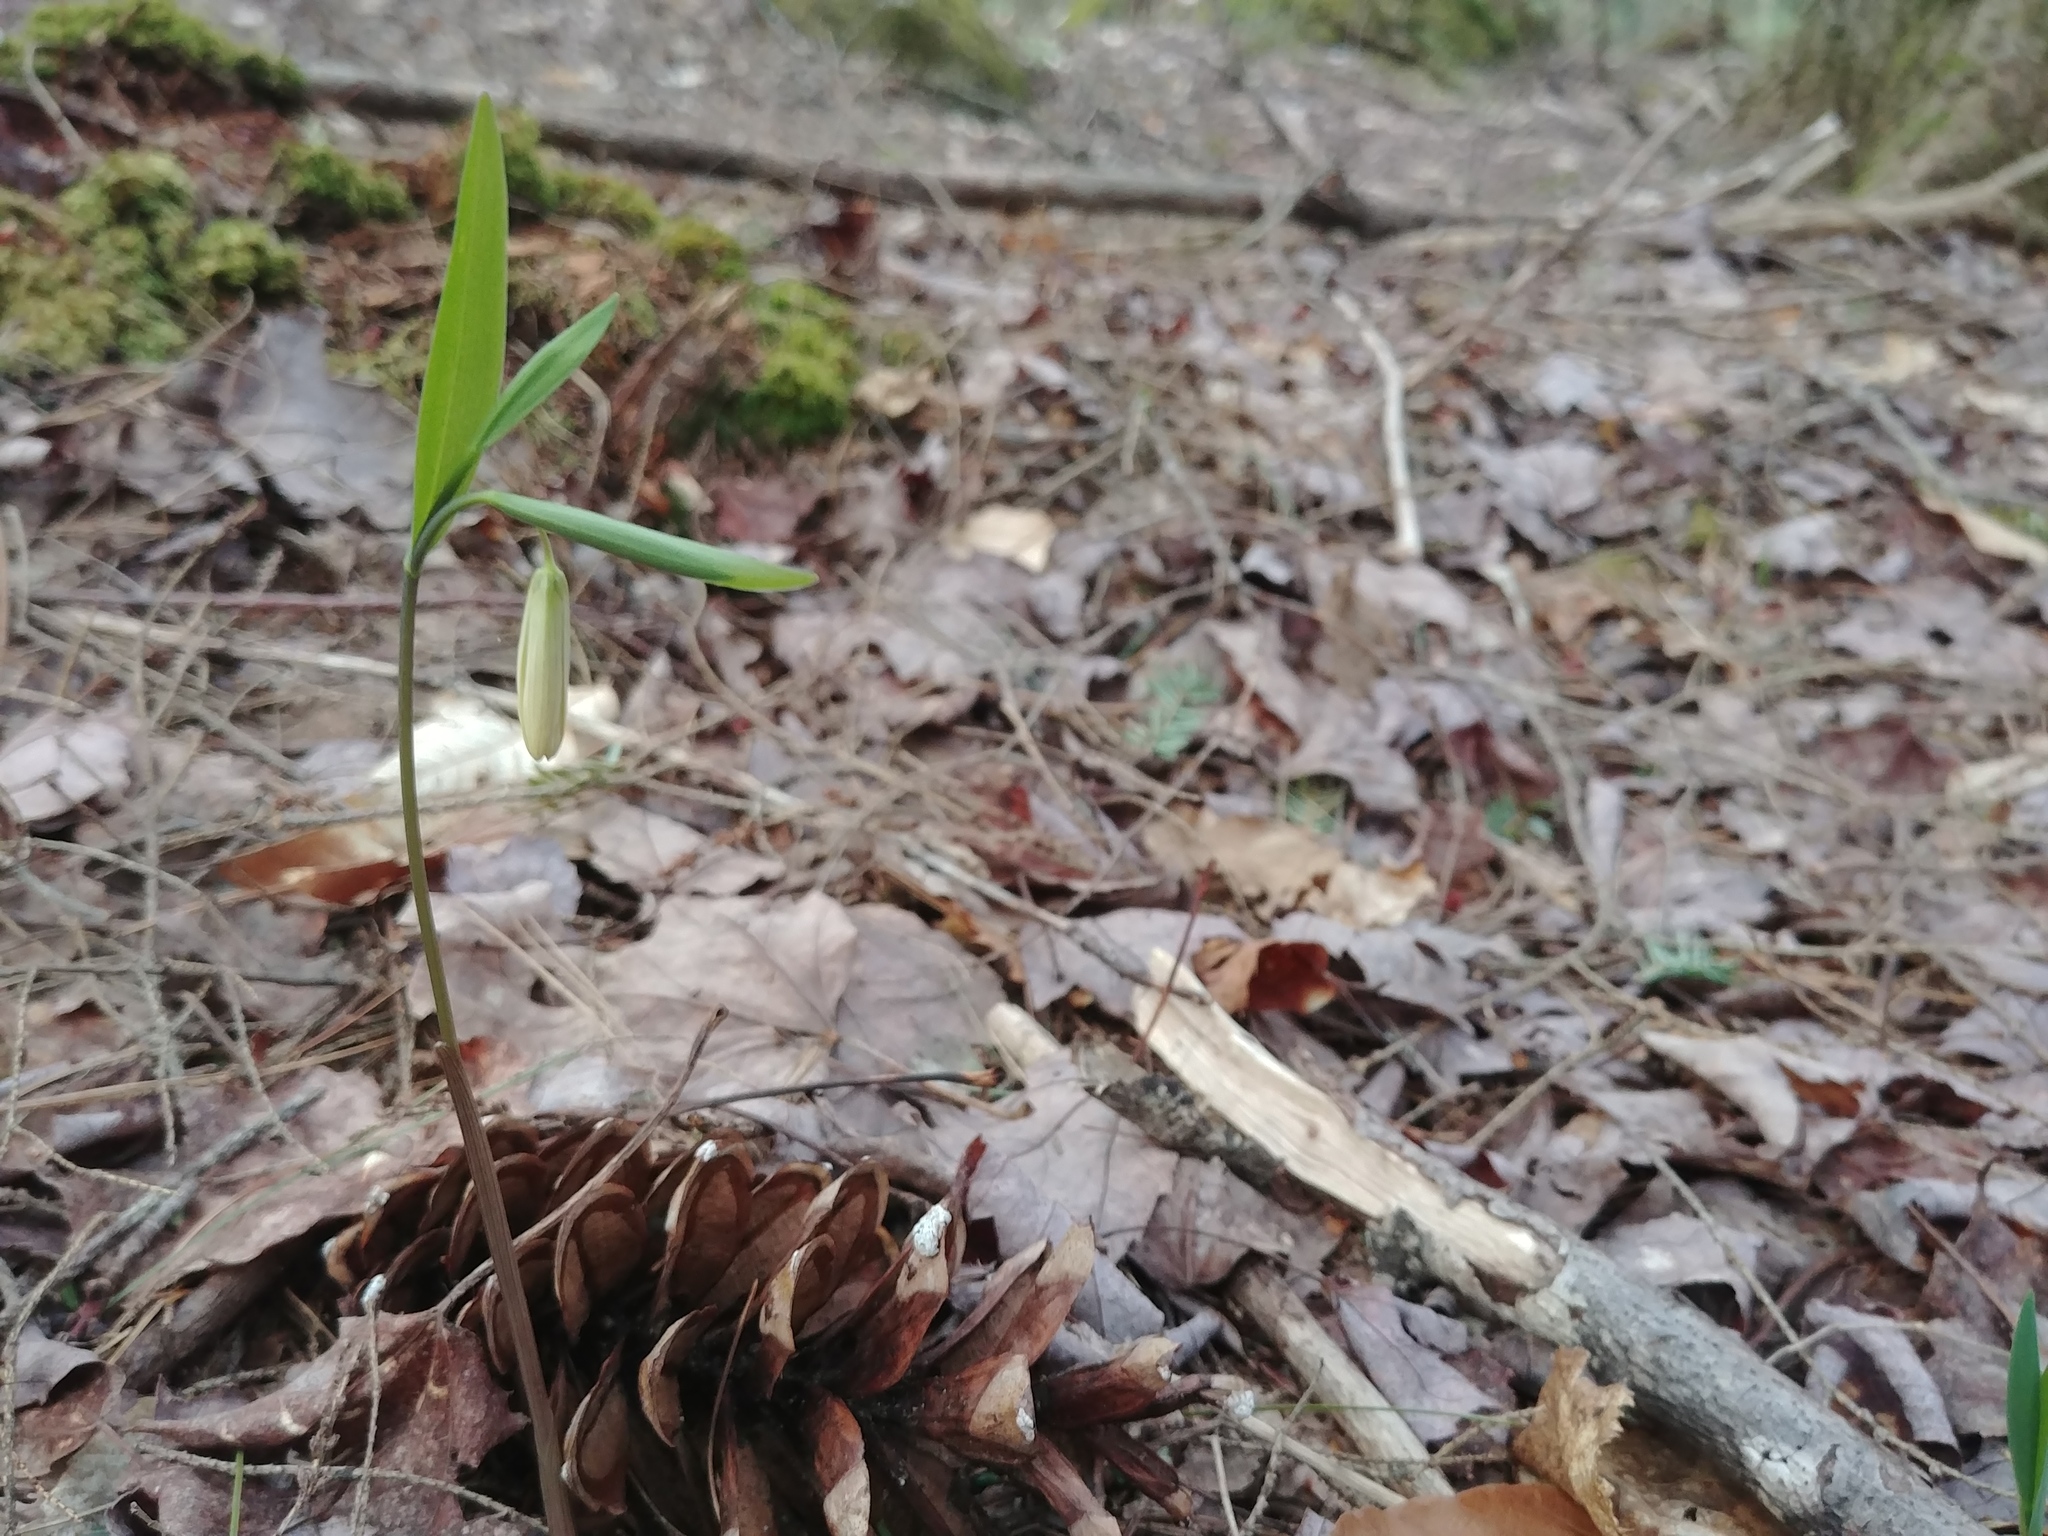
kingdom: Plantae
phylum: Tracheophyta
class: Liliopsida
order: Liliales
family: Colchicaceae
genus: Uvularia
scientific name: Uvularia sessilifolia
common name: Straw-lily
